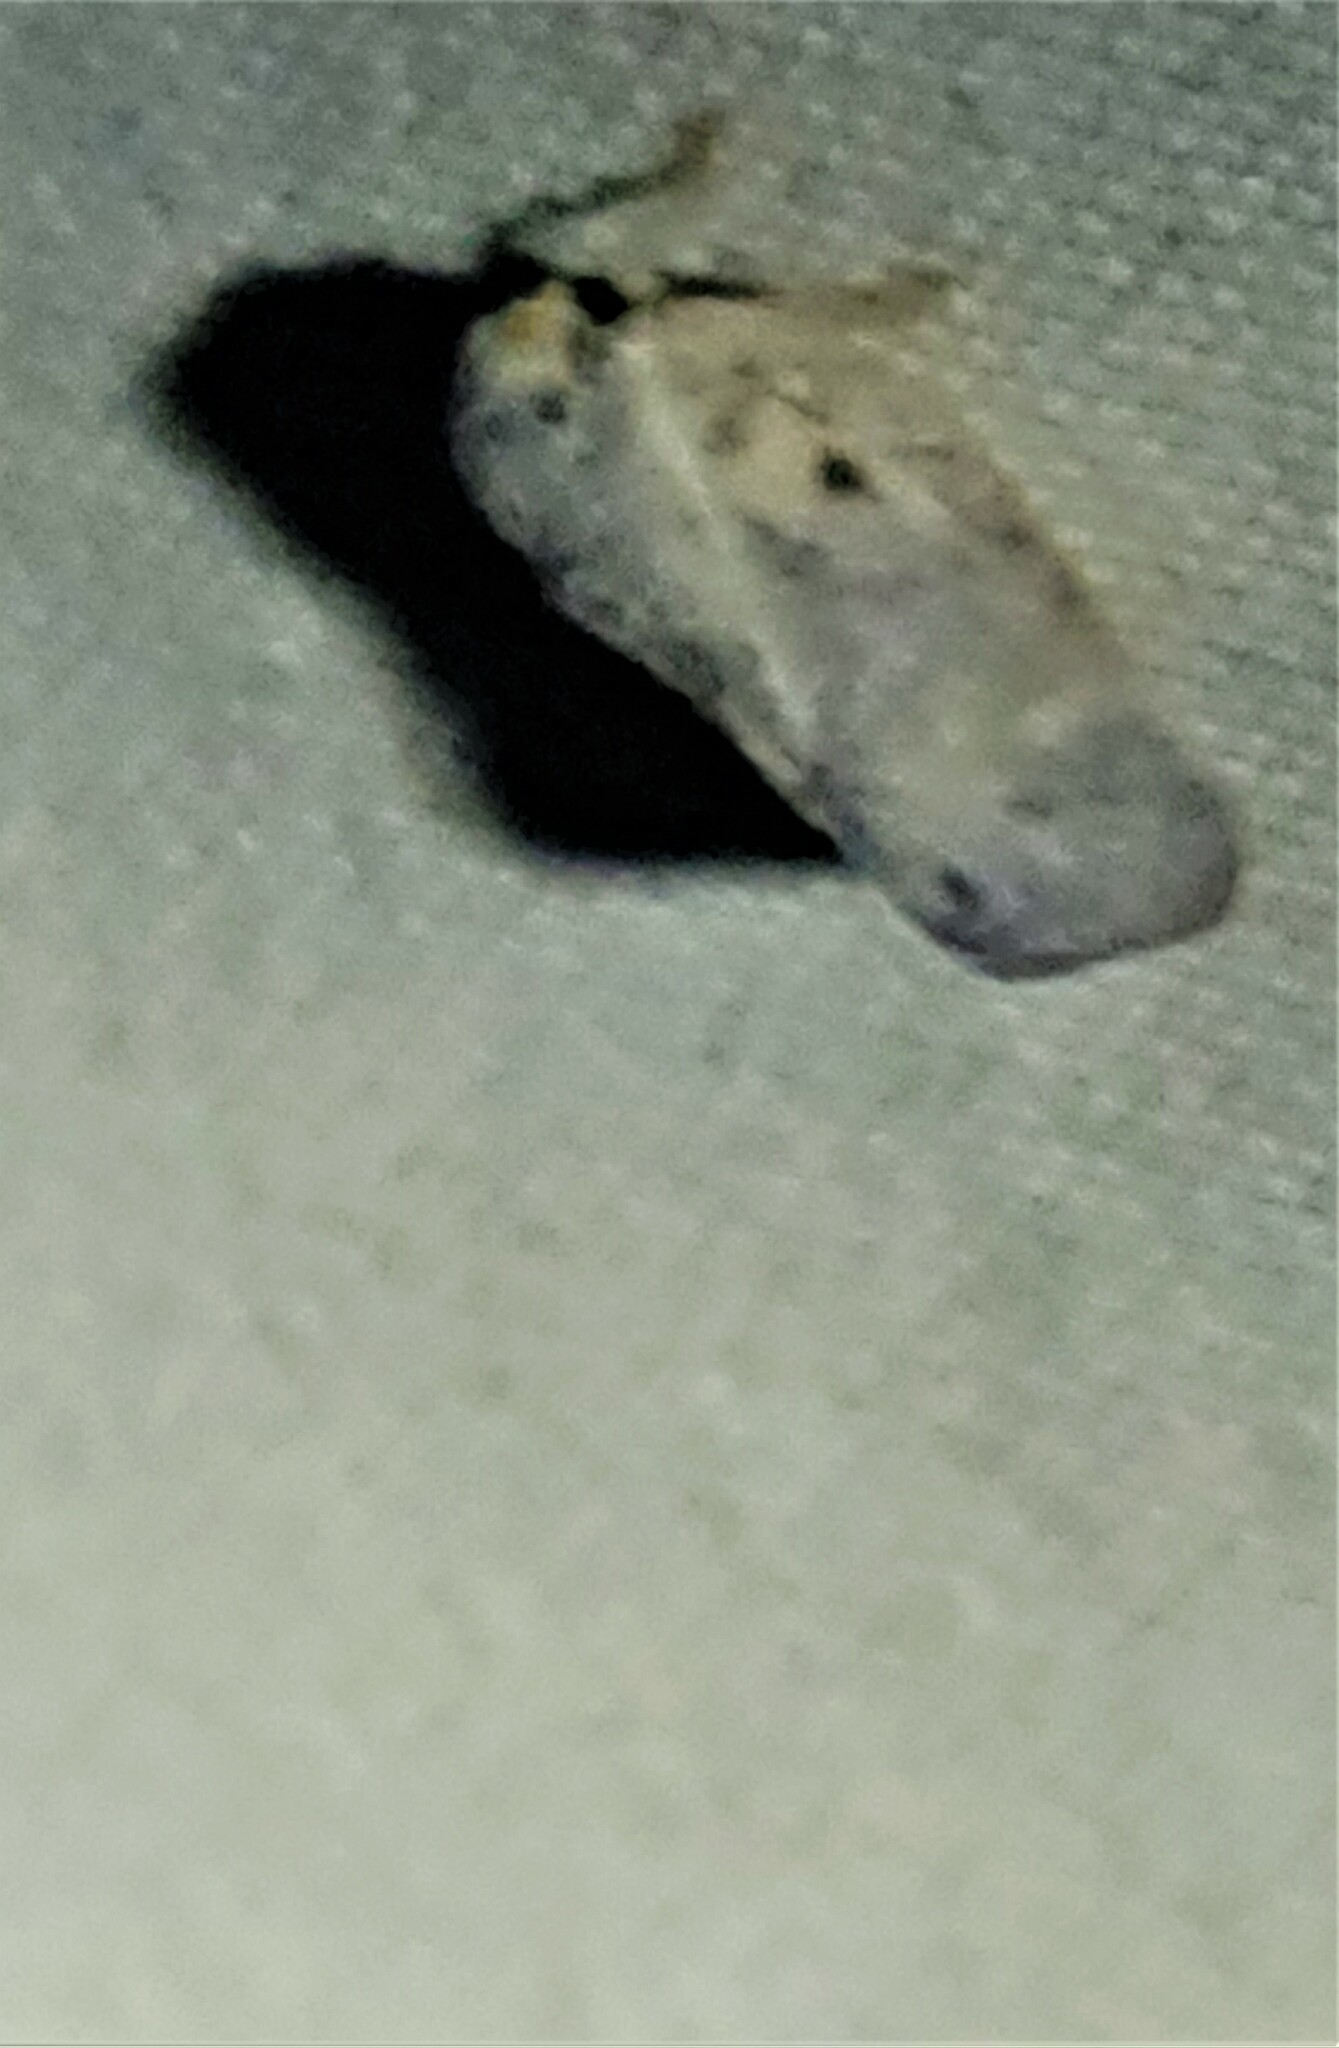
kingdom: Animalia
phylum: Arthropoda
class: Insecta
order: Hemiptera
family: Flatidae
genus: Metcalfa
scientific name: Metcalfa pruinosa
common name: Citrus flatid planthopper
